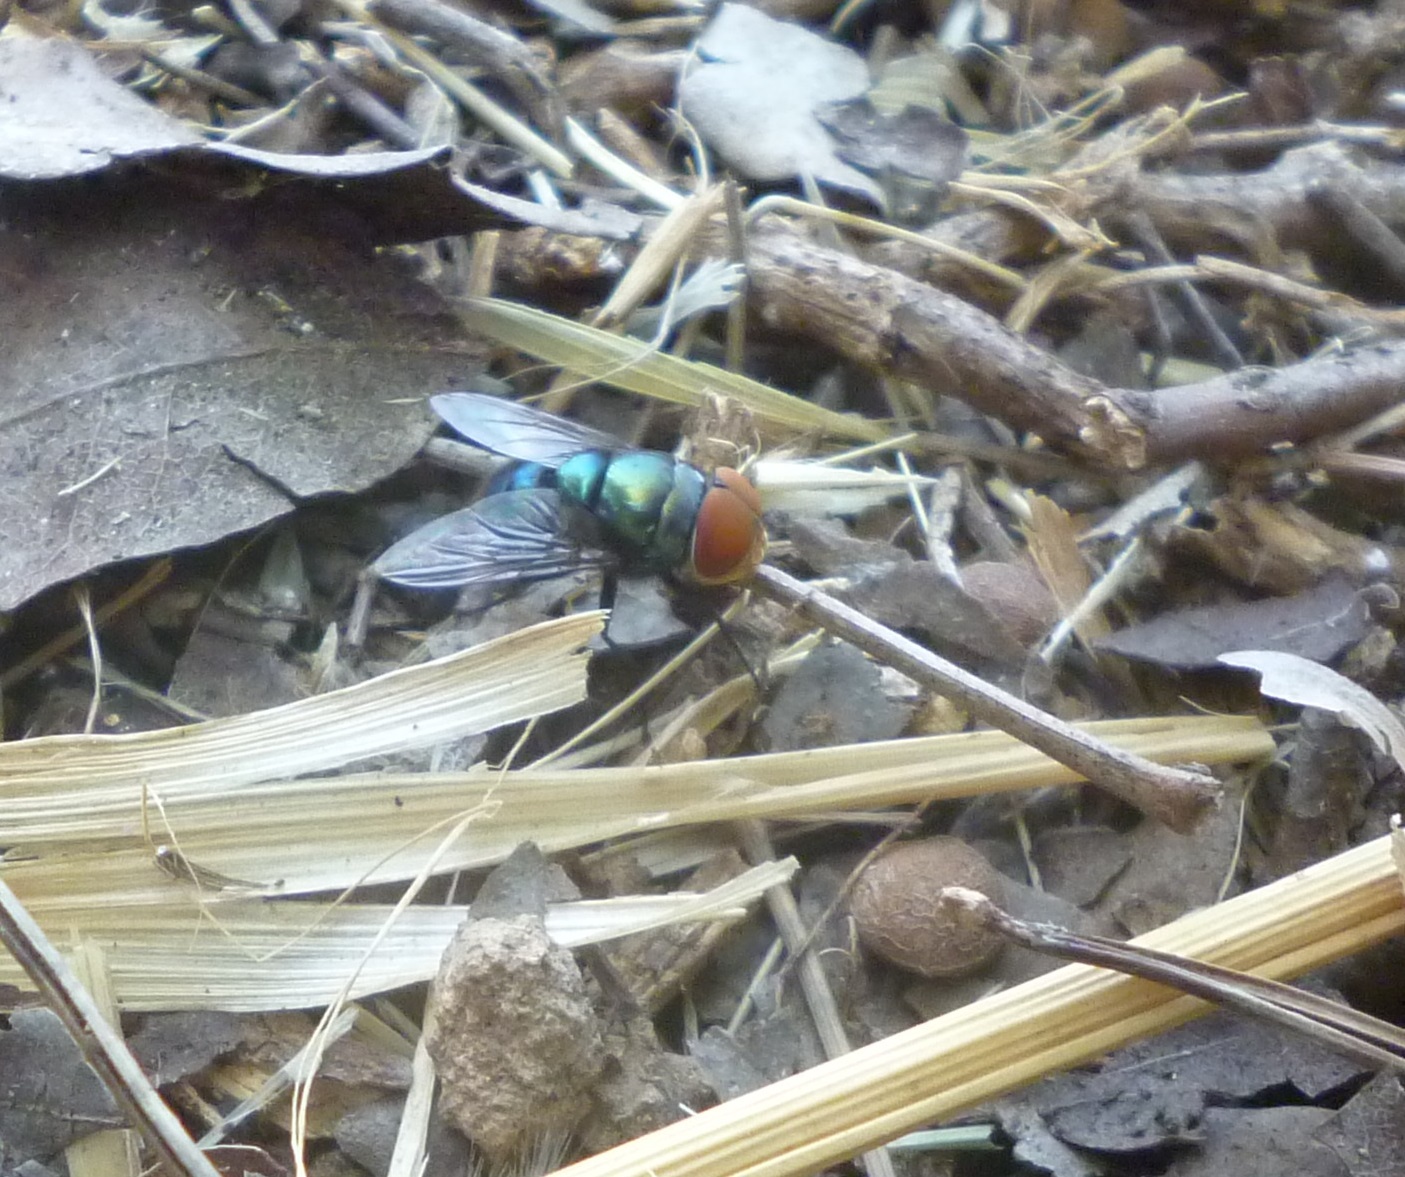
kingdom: Animalia
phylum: Arthropoda
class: Insecta
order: Diptera
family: Calliphoridae
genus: Chrysomya
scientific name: Chrysomya megacephala
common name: Blow fly
